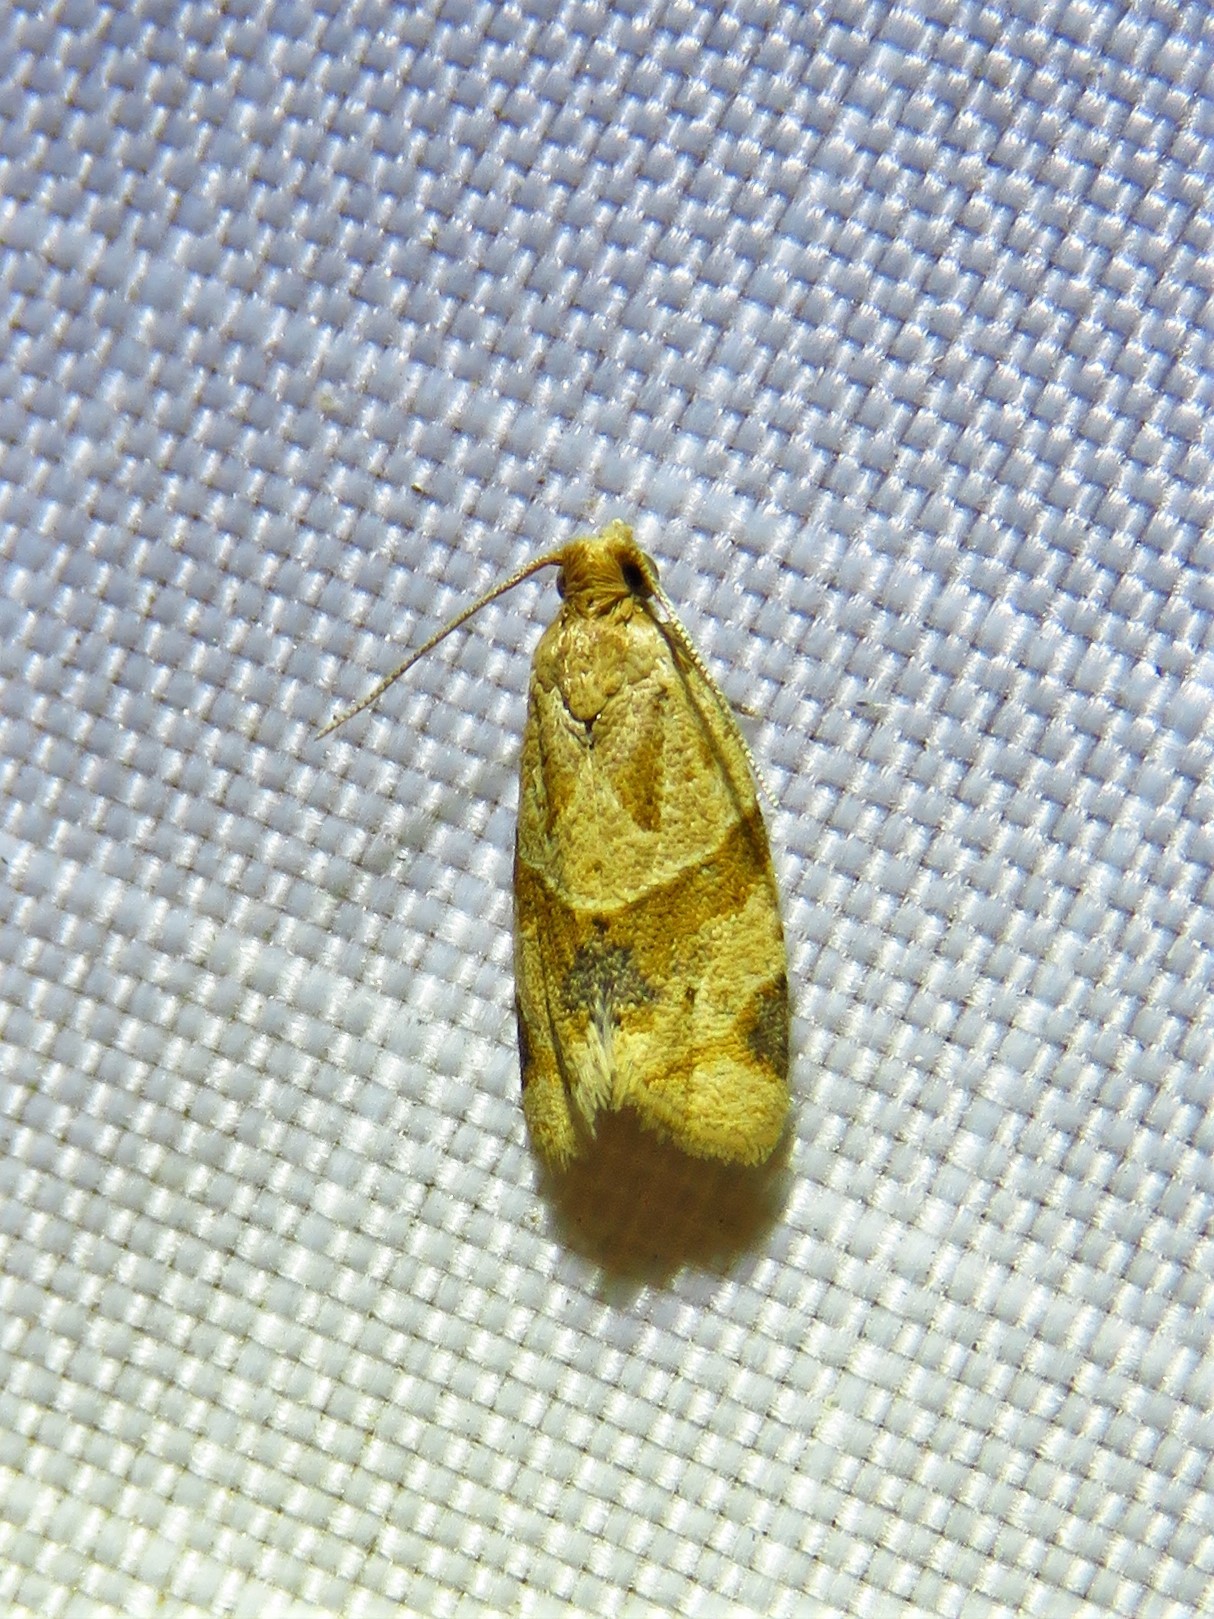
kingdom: Animalia
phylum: Arthropoda
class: Insecta
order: Lepidoptera
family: Tortricidae
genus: Clepsis
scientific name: Clepsis peritana
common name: Garden tortrix
